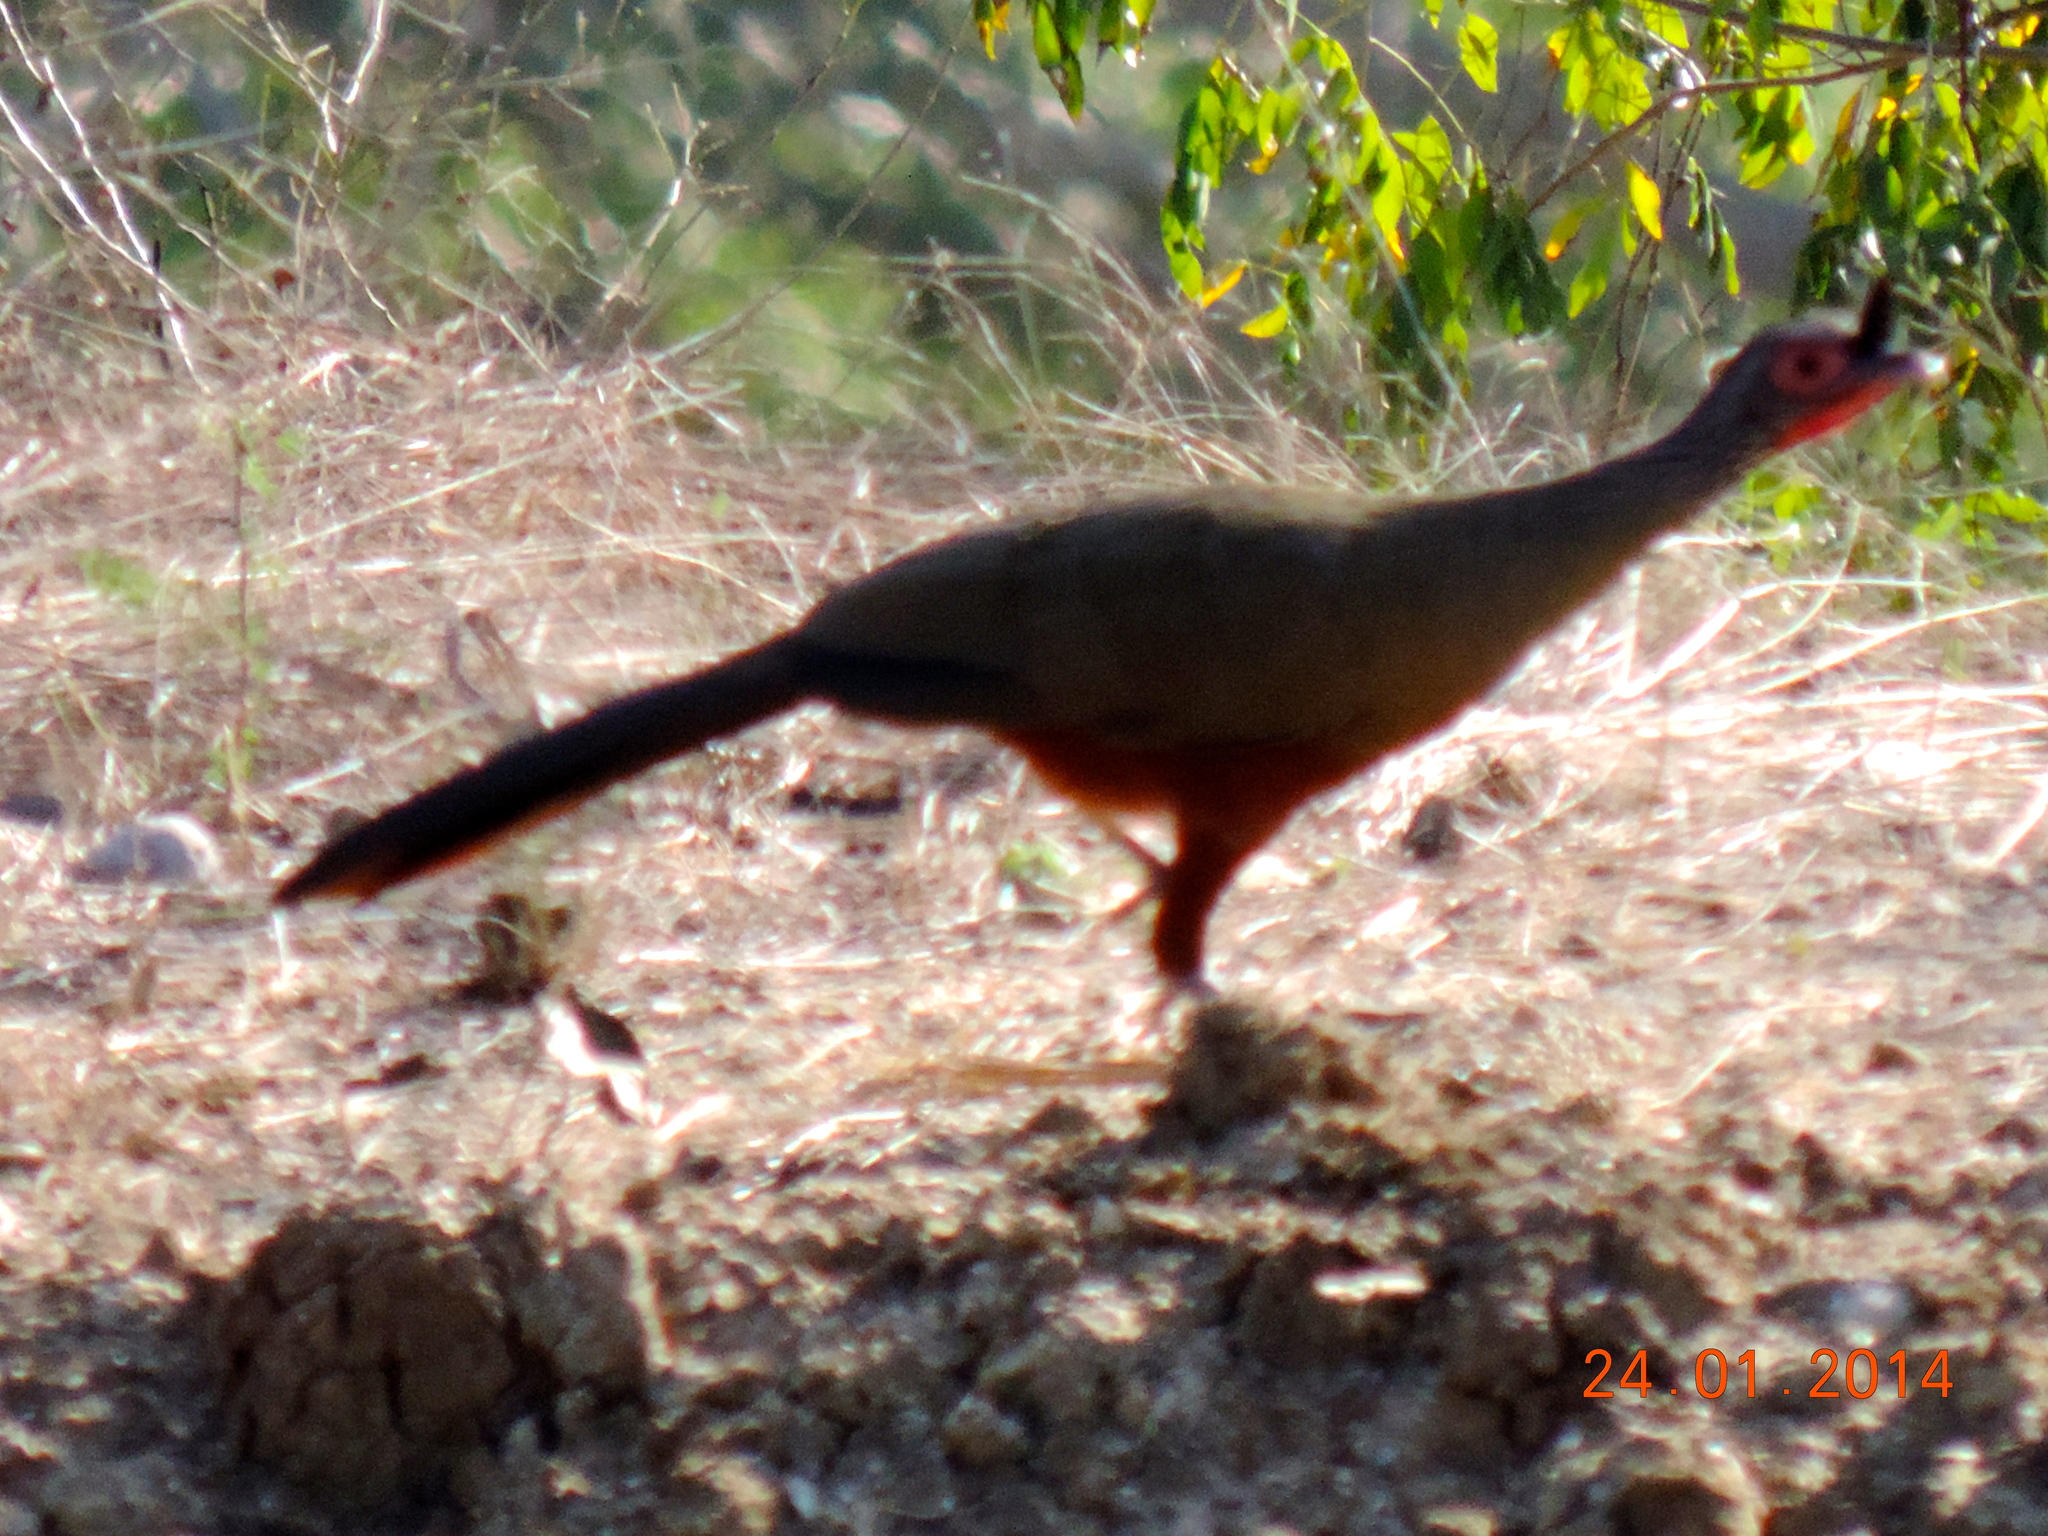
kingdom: Animalia
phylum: Chordata
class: Aves
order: Galliformes
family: Cracidae
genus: Ortalis
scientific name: Ortalis wagleri
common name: Rufous-bellied chachalaca
